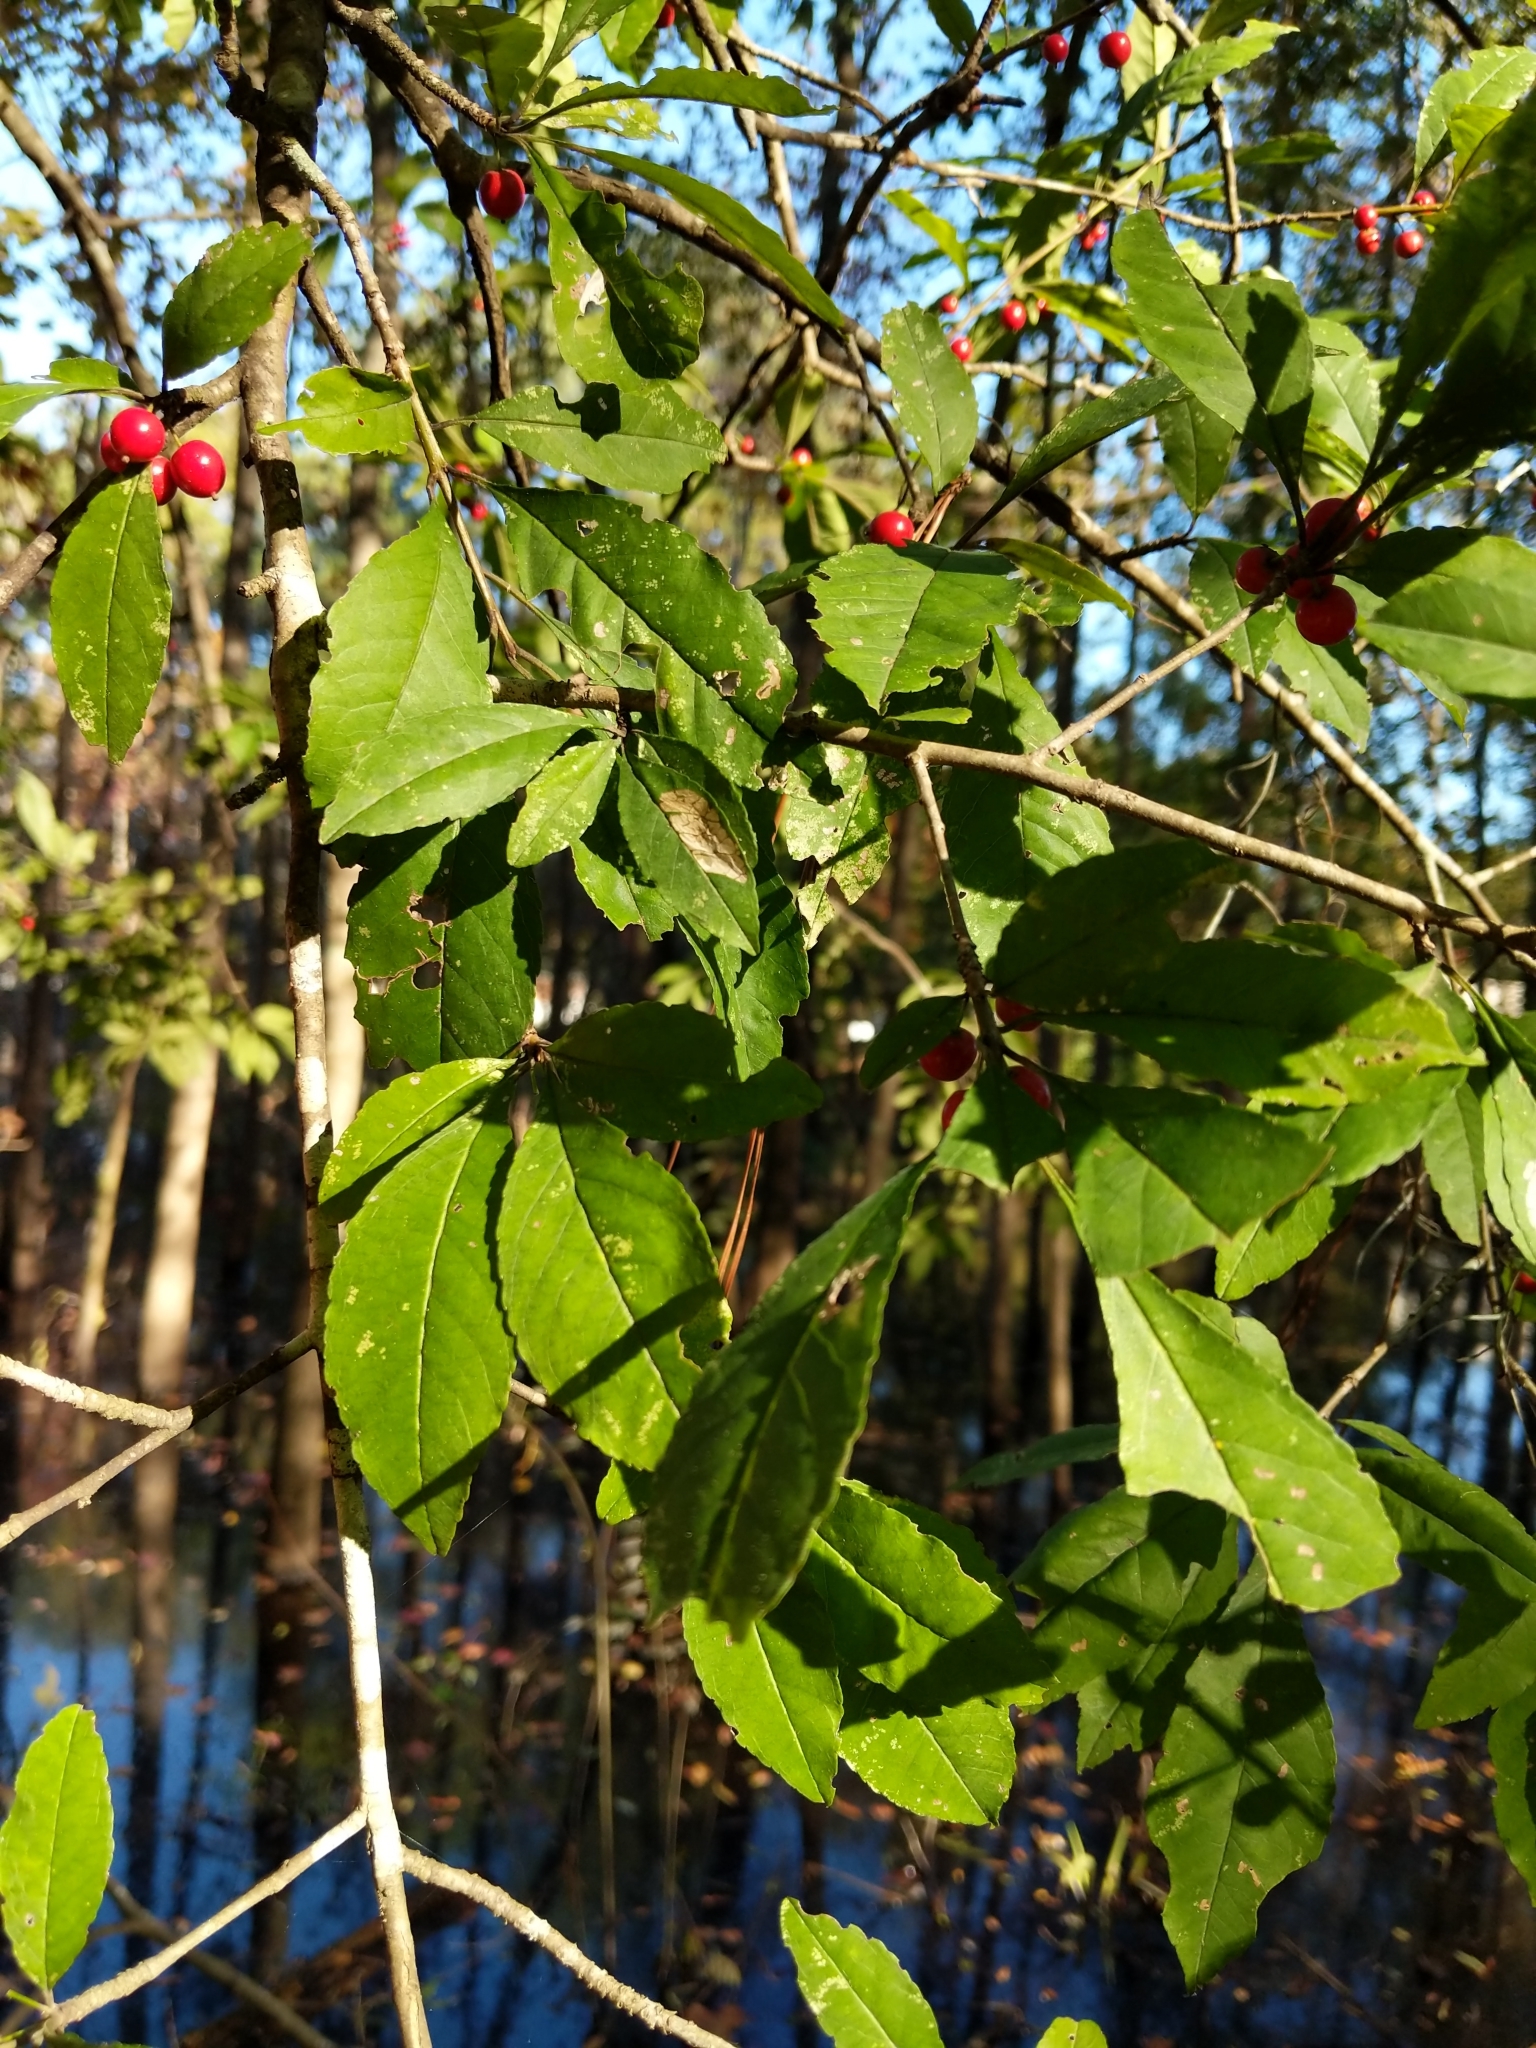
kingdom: Plantae
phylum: Tracheophyta
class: Magnoliopsida
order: Aquifoliales
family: Aquifoliaceae
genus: Ilex
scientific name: Ilex decidua
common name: Possum-haw
